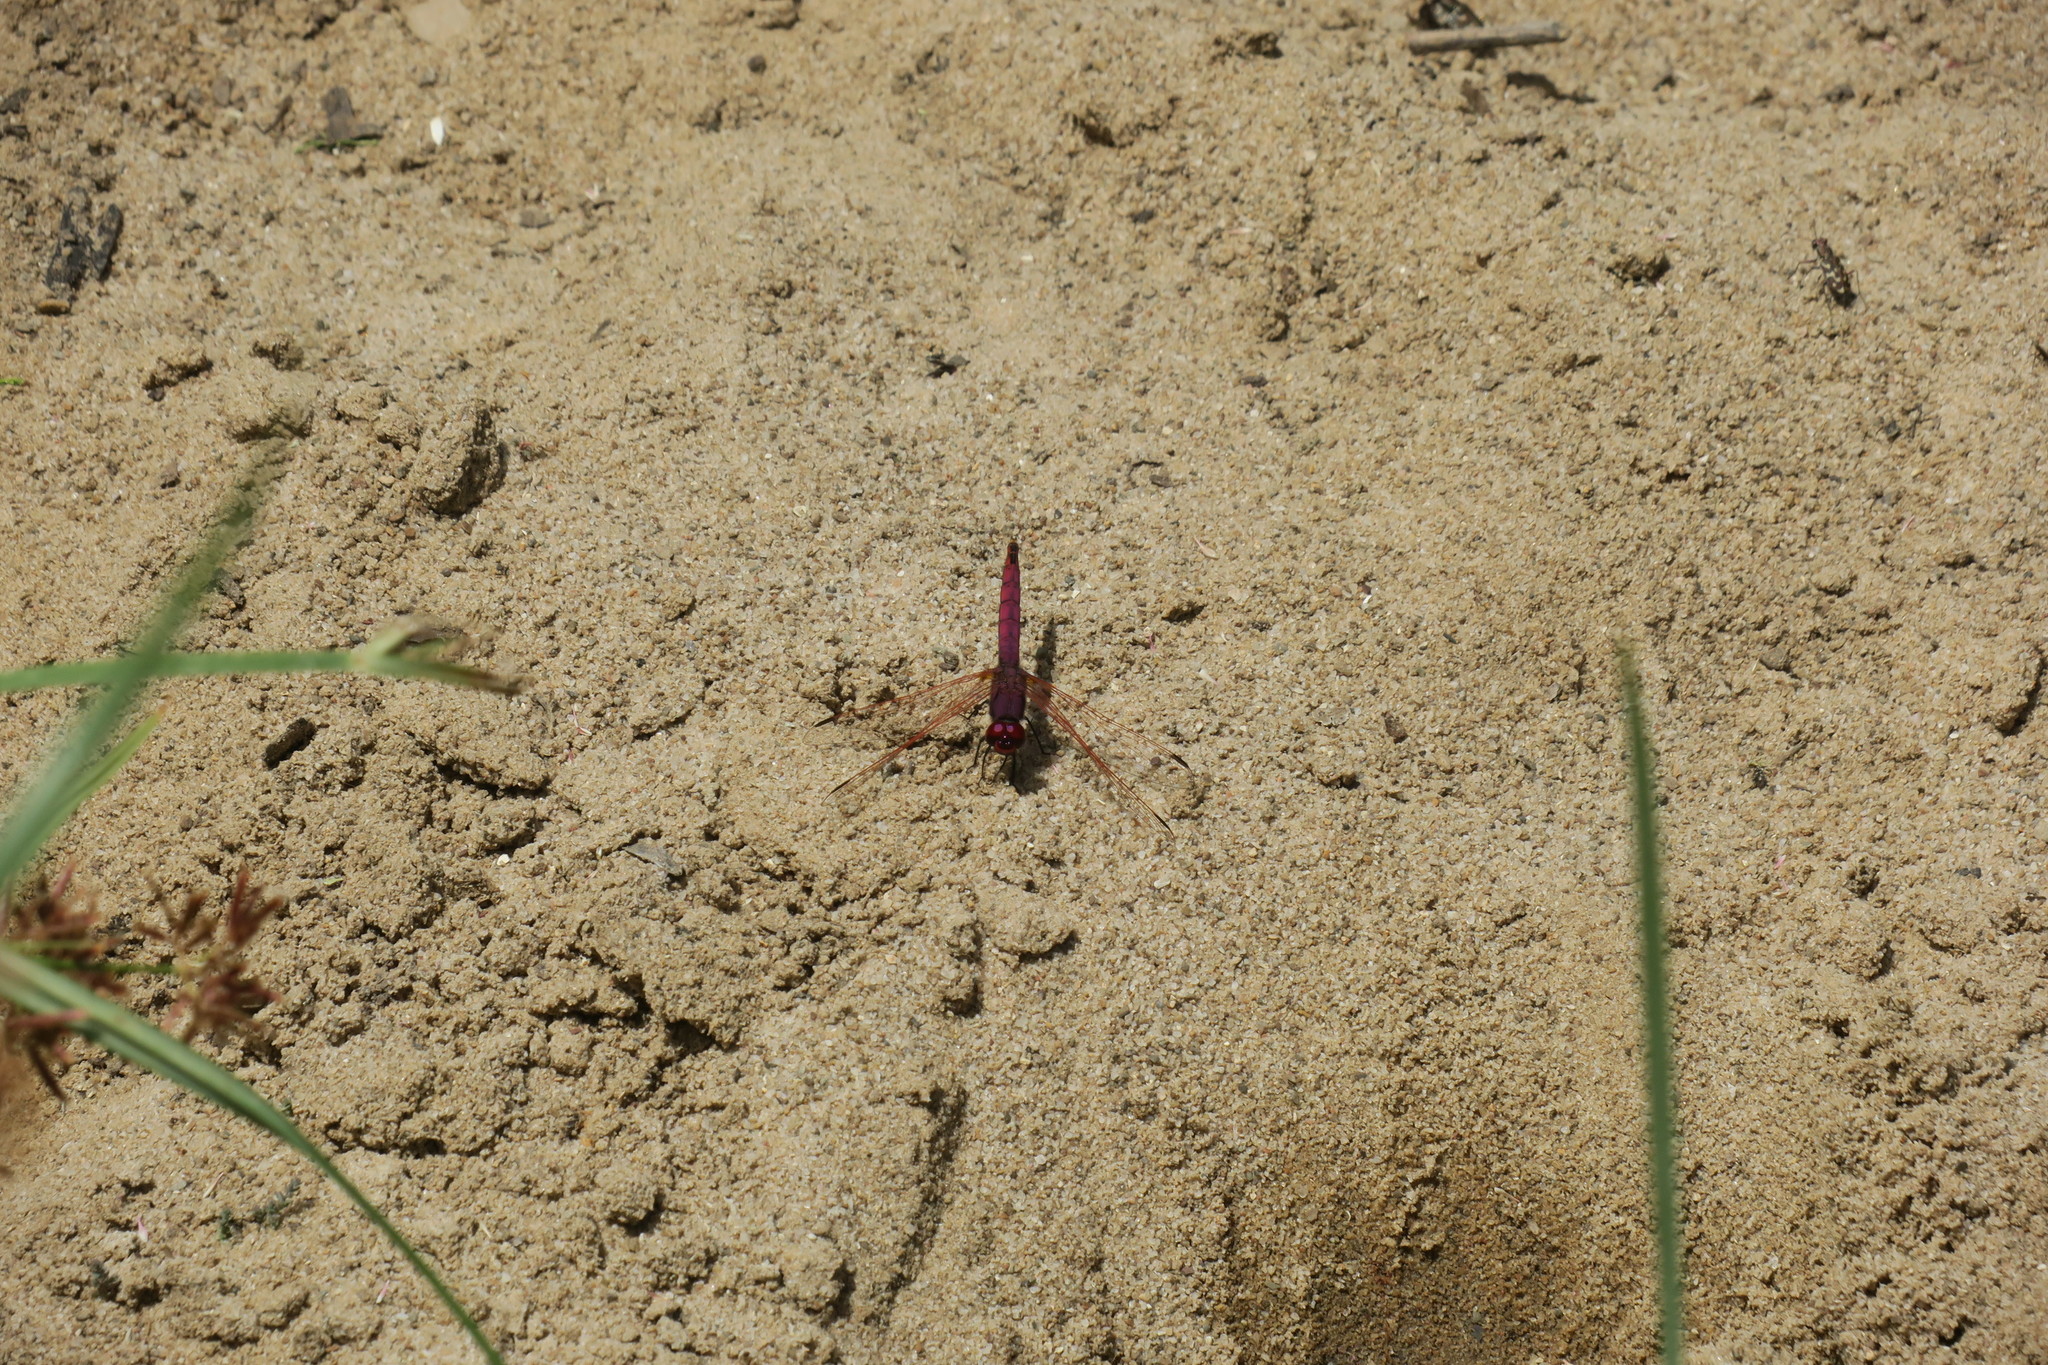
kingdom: Animalia
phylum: Arthropoda
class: Insecta
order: Odonata
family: Libellulidae
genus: Trithemis
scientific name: Trithemis annulata
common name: Violet dropwing
